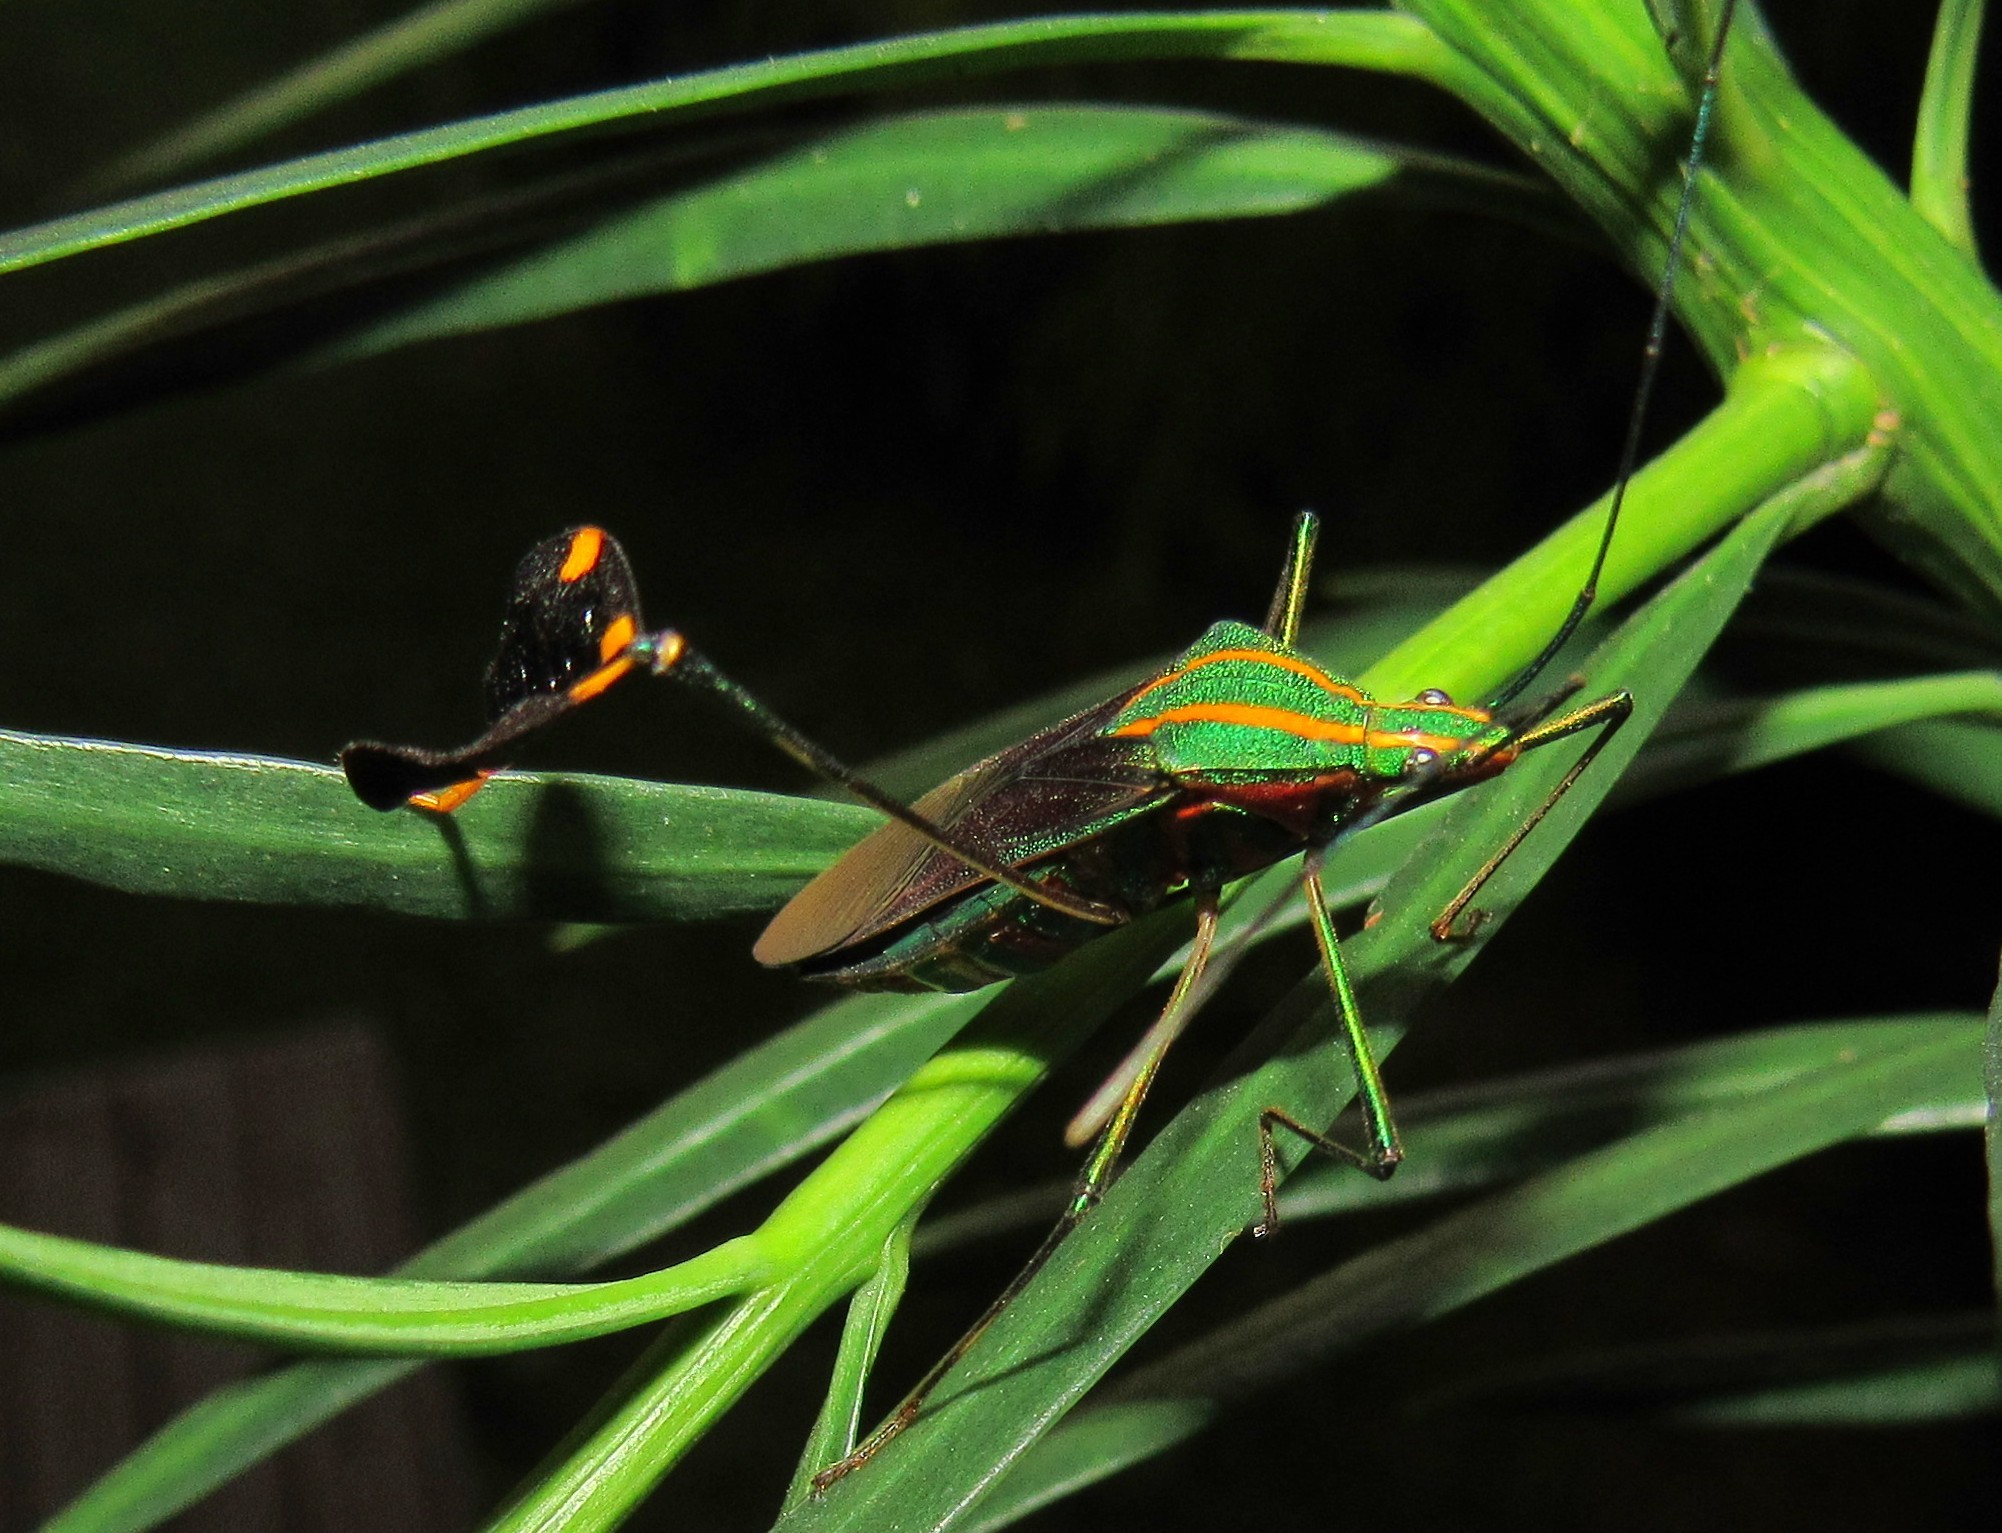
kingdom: Animalia
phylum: Arthropoda
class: Insecta
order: Hemiptera
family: Coreidae
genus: Diactor
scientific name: Diactor bilineatus
